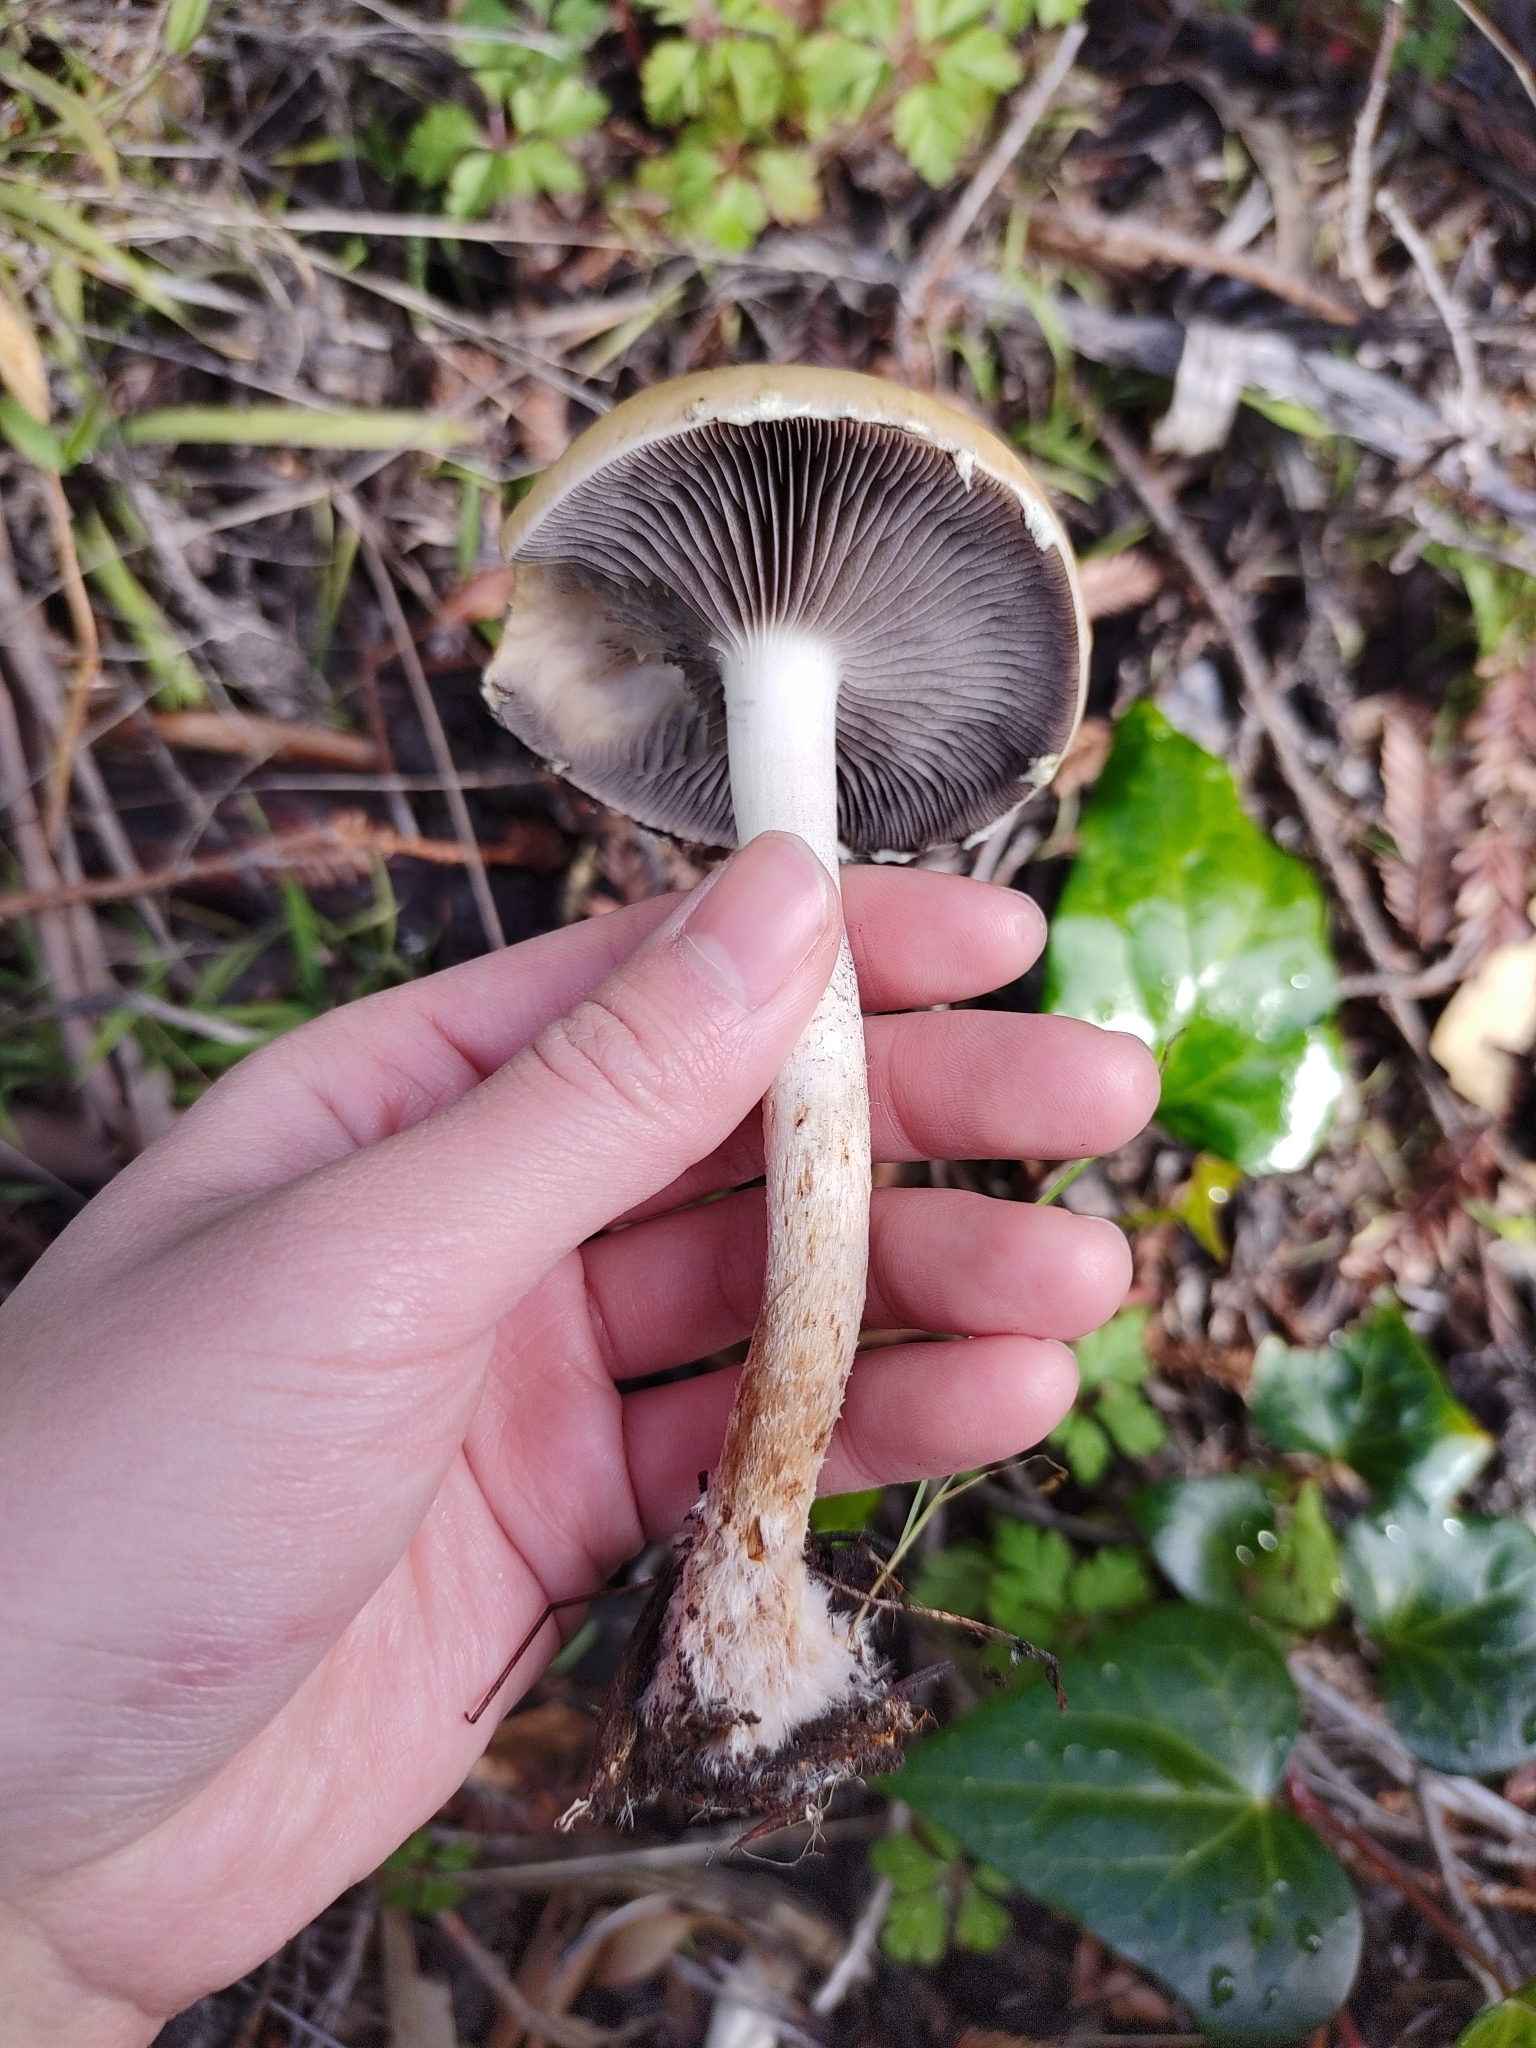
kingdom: Fungi
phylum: Basidiomycota
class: Agaricomycetes
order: Agaricales
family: Strophariaceae
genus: Leratiomyces
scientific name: Leratiomyces percevalii
